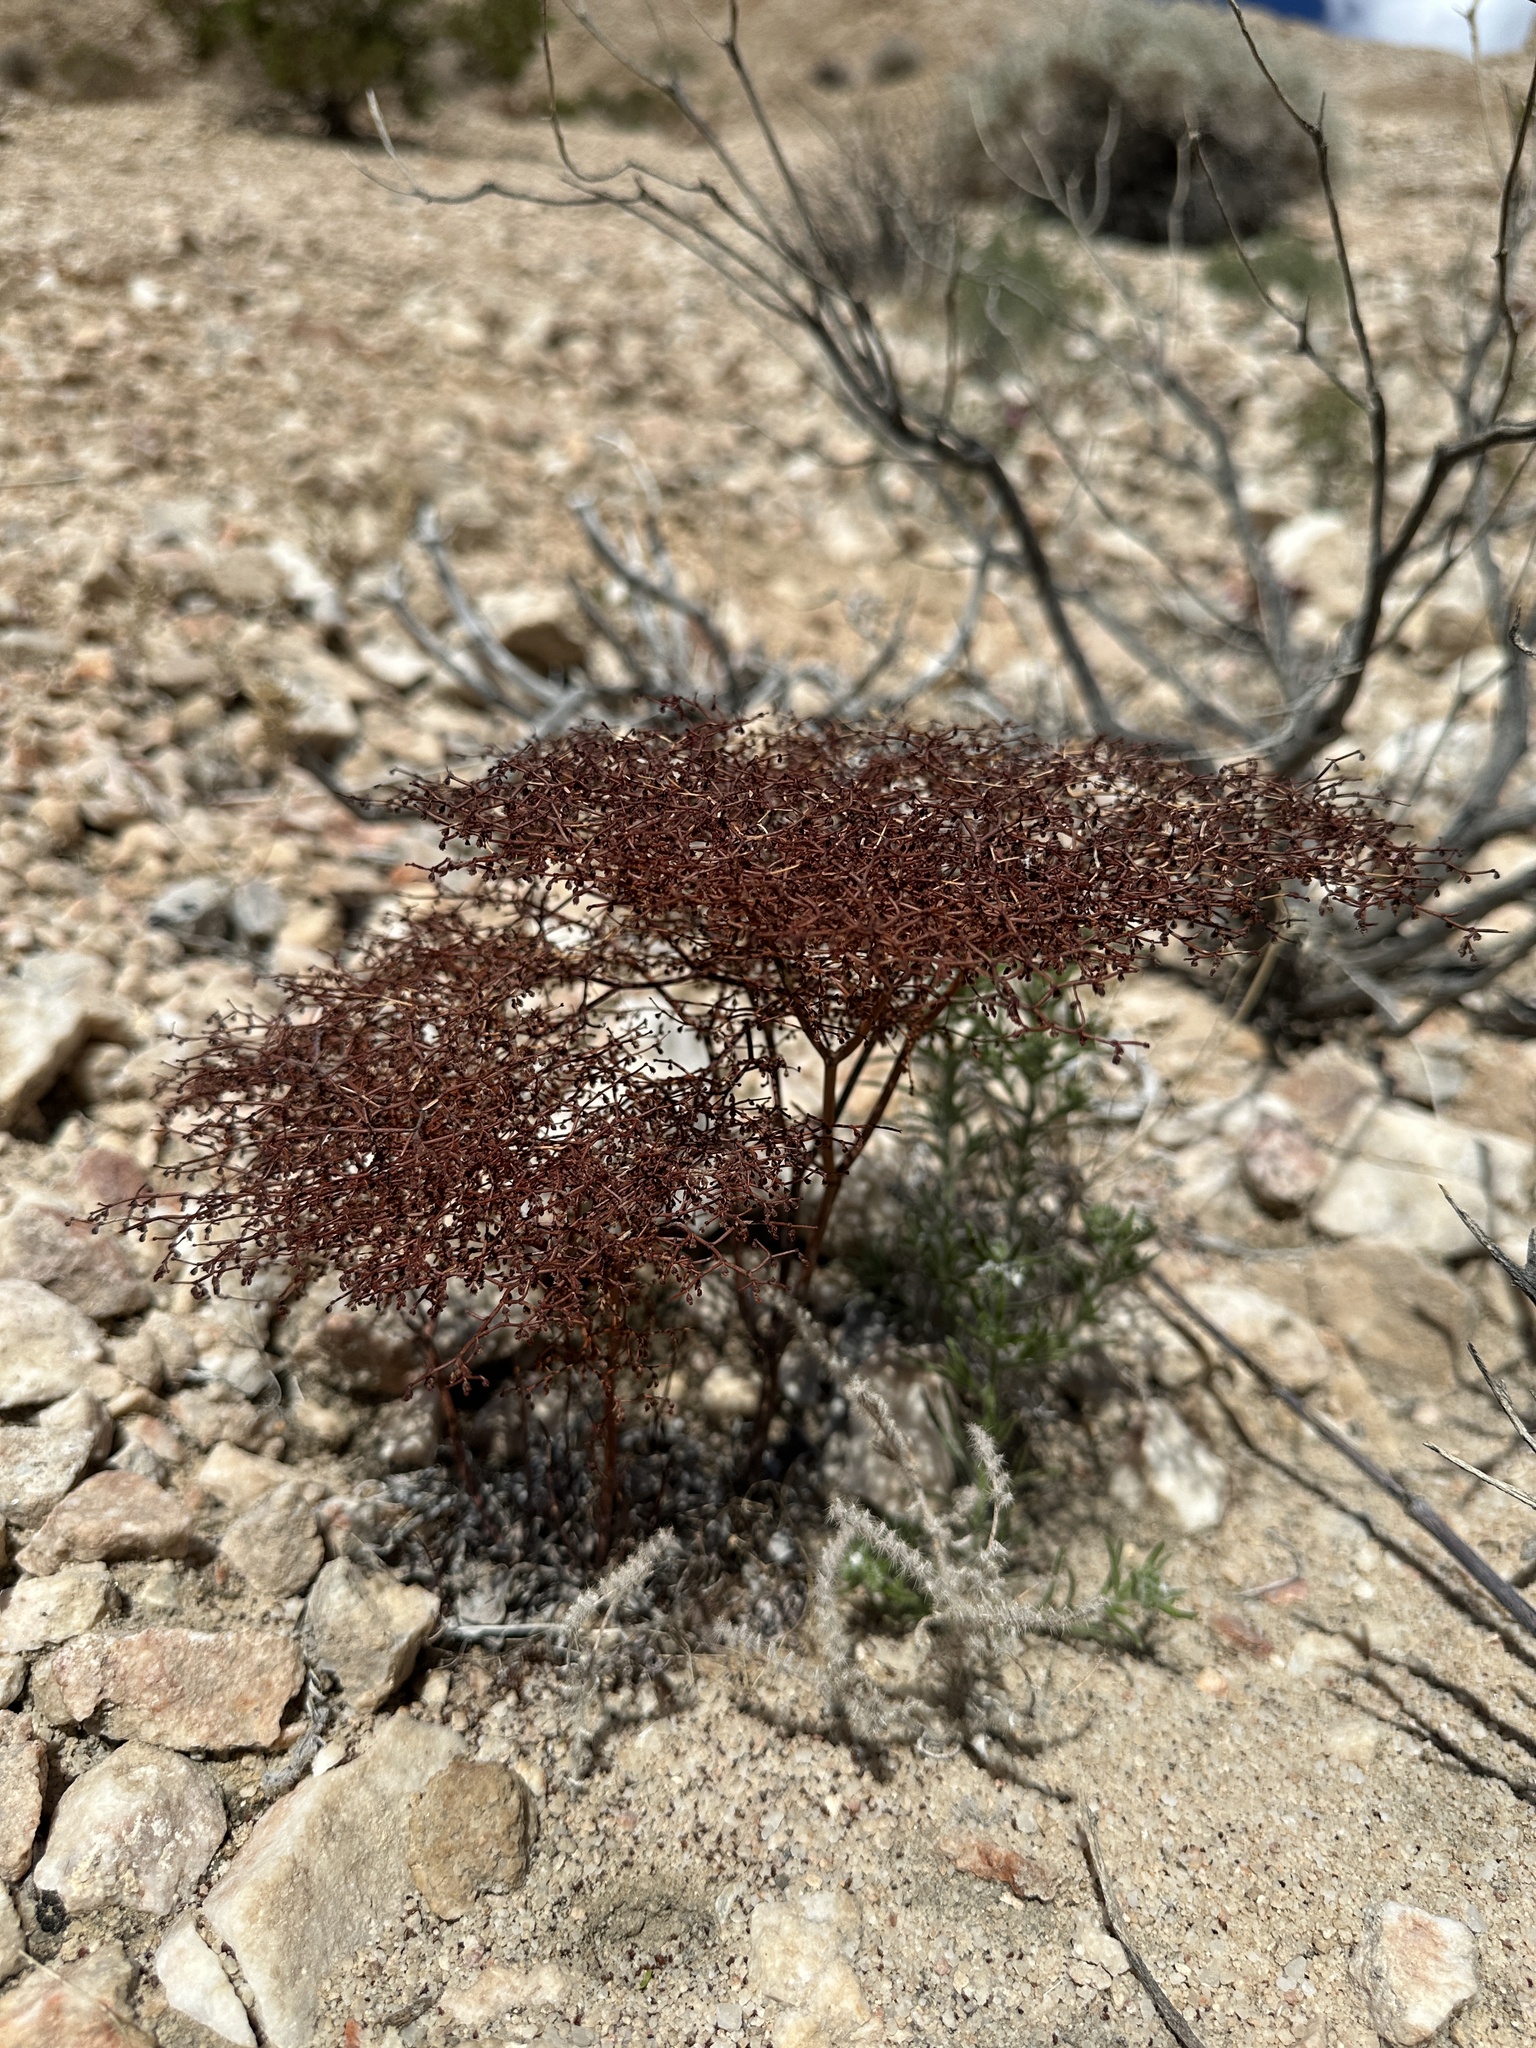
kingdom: Plantae
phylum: Tracheophyta
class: Magnoliopsida
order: Caryophyllales
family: Polygonaceae
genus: Eriogonum
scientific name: Eriogonum rixfordii
